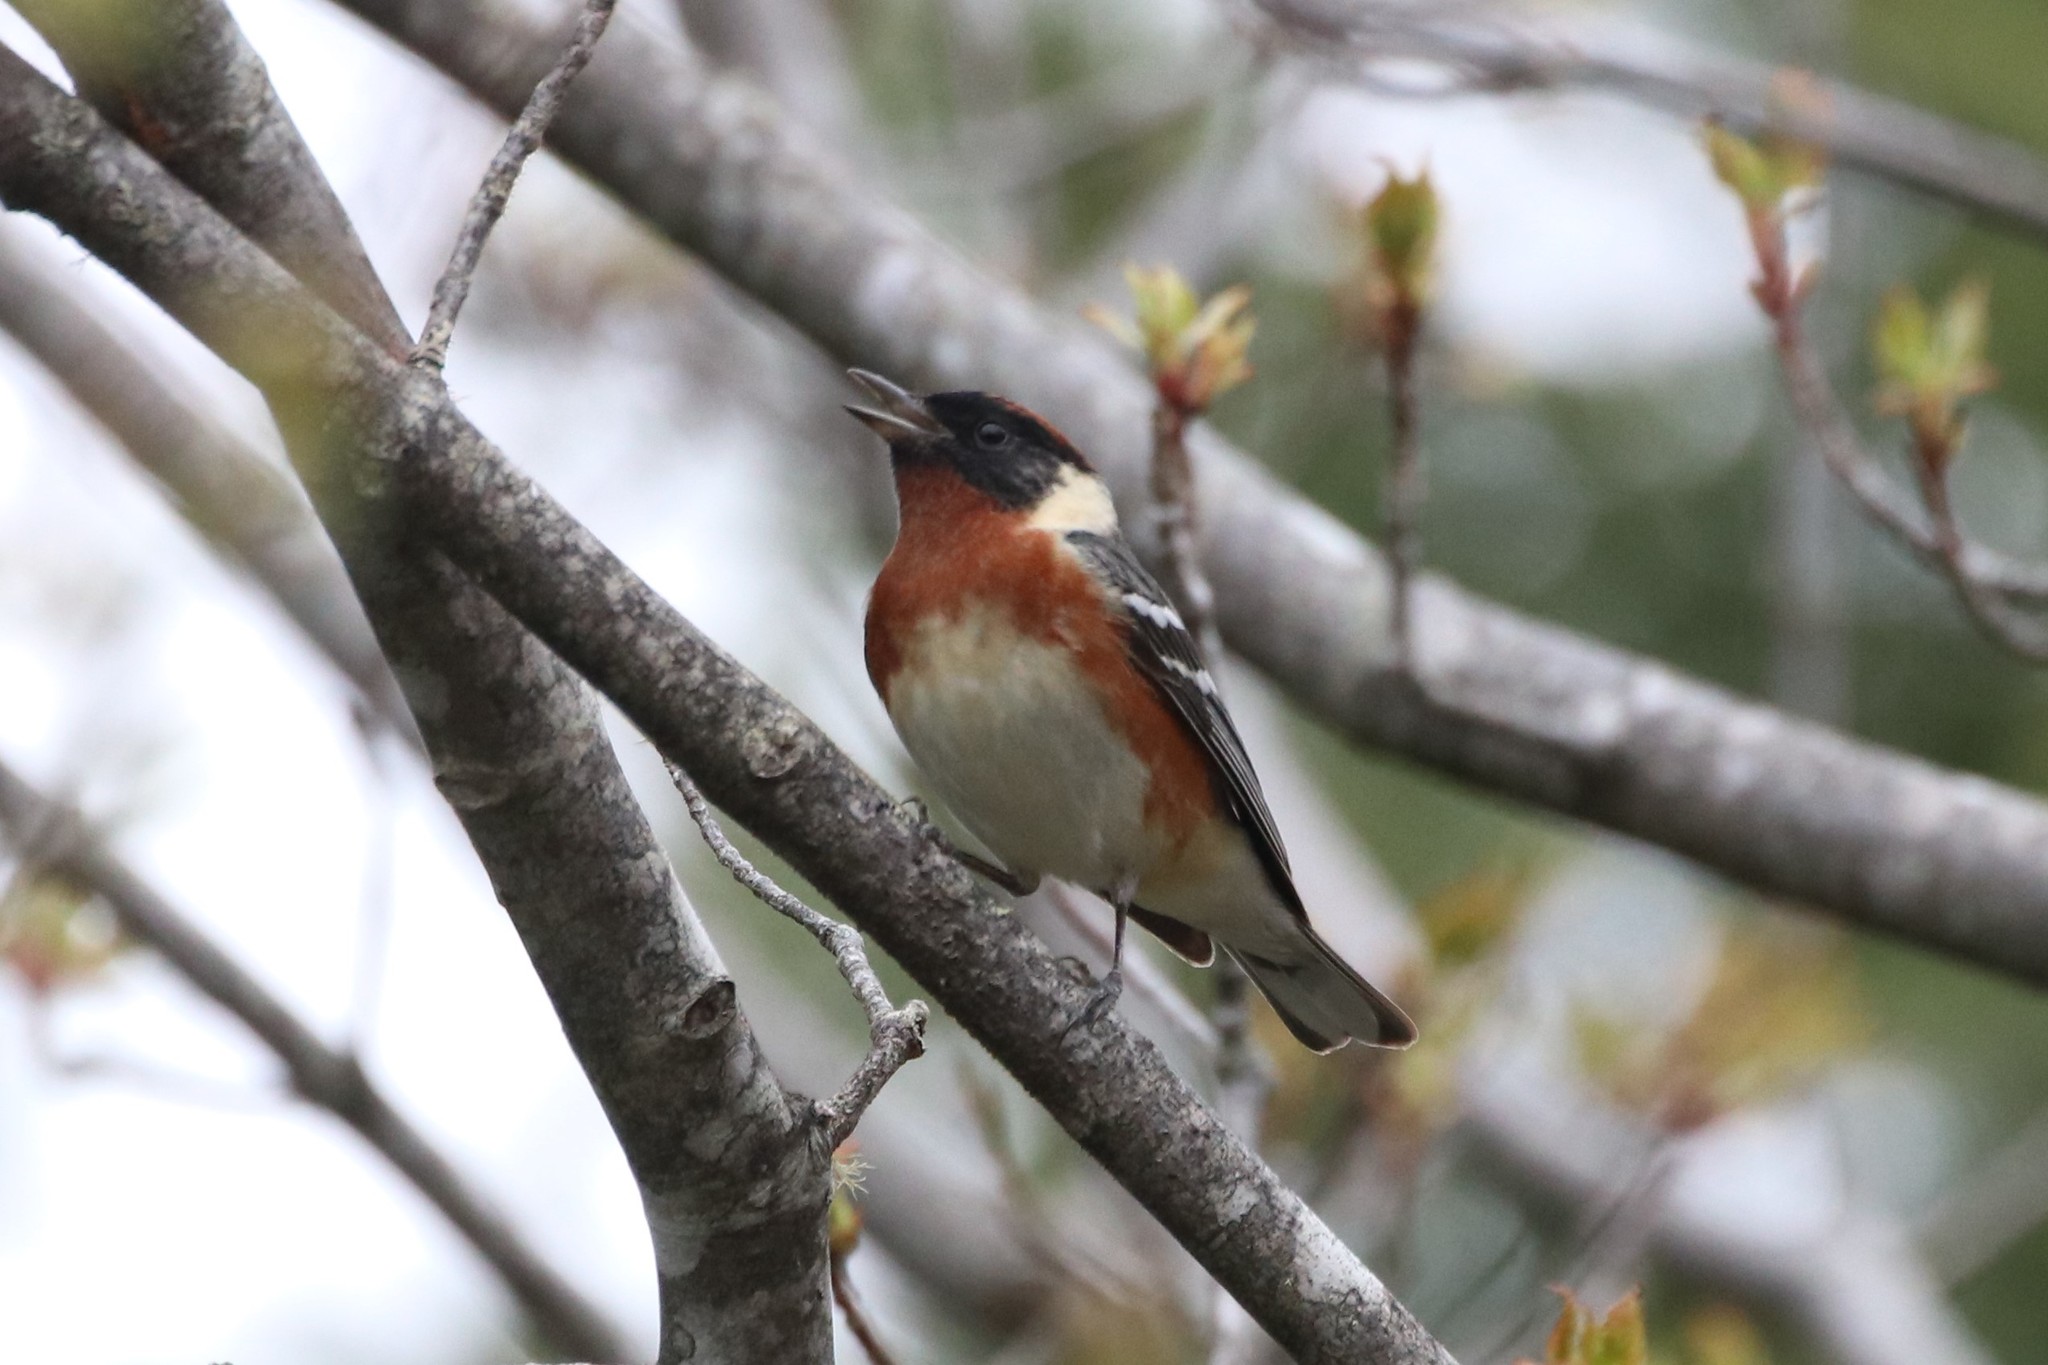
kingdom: Animalia
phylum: Chordata
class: Aves
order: Passeriformes
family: Parulidae
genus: Setophaga
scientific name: Setophaga castanea
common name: Bay-breasted warbler
